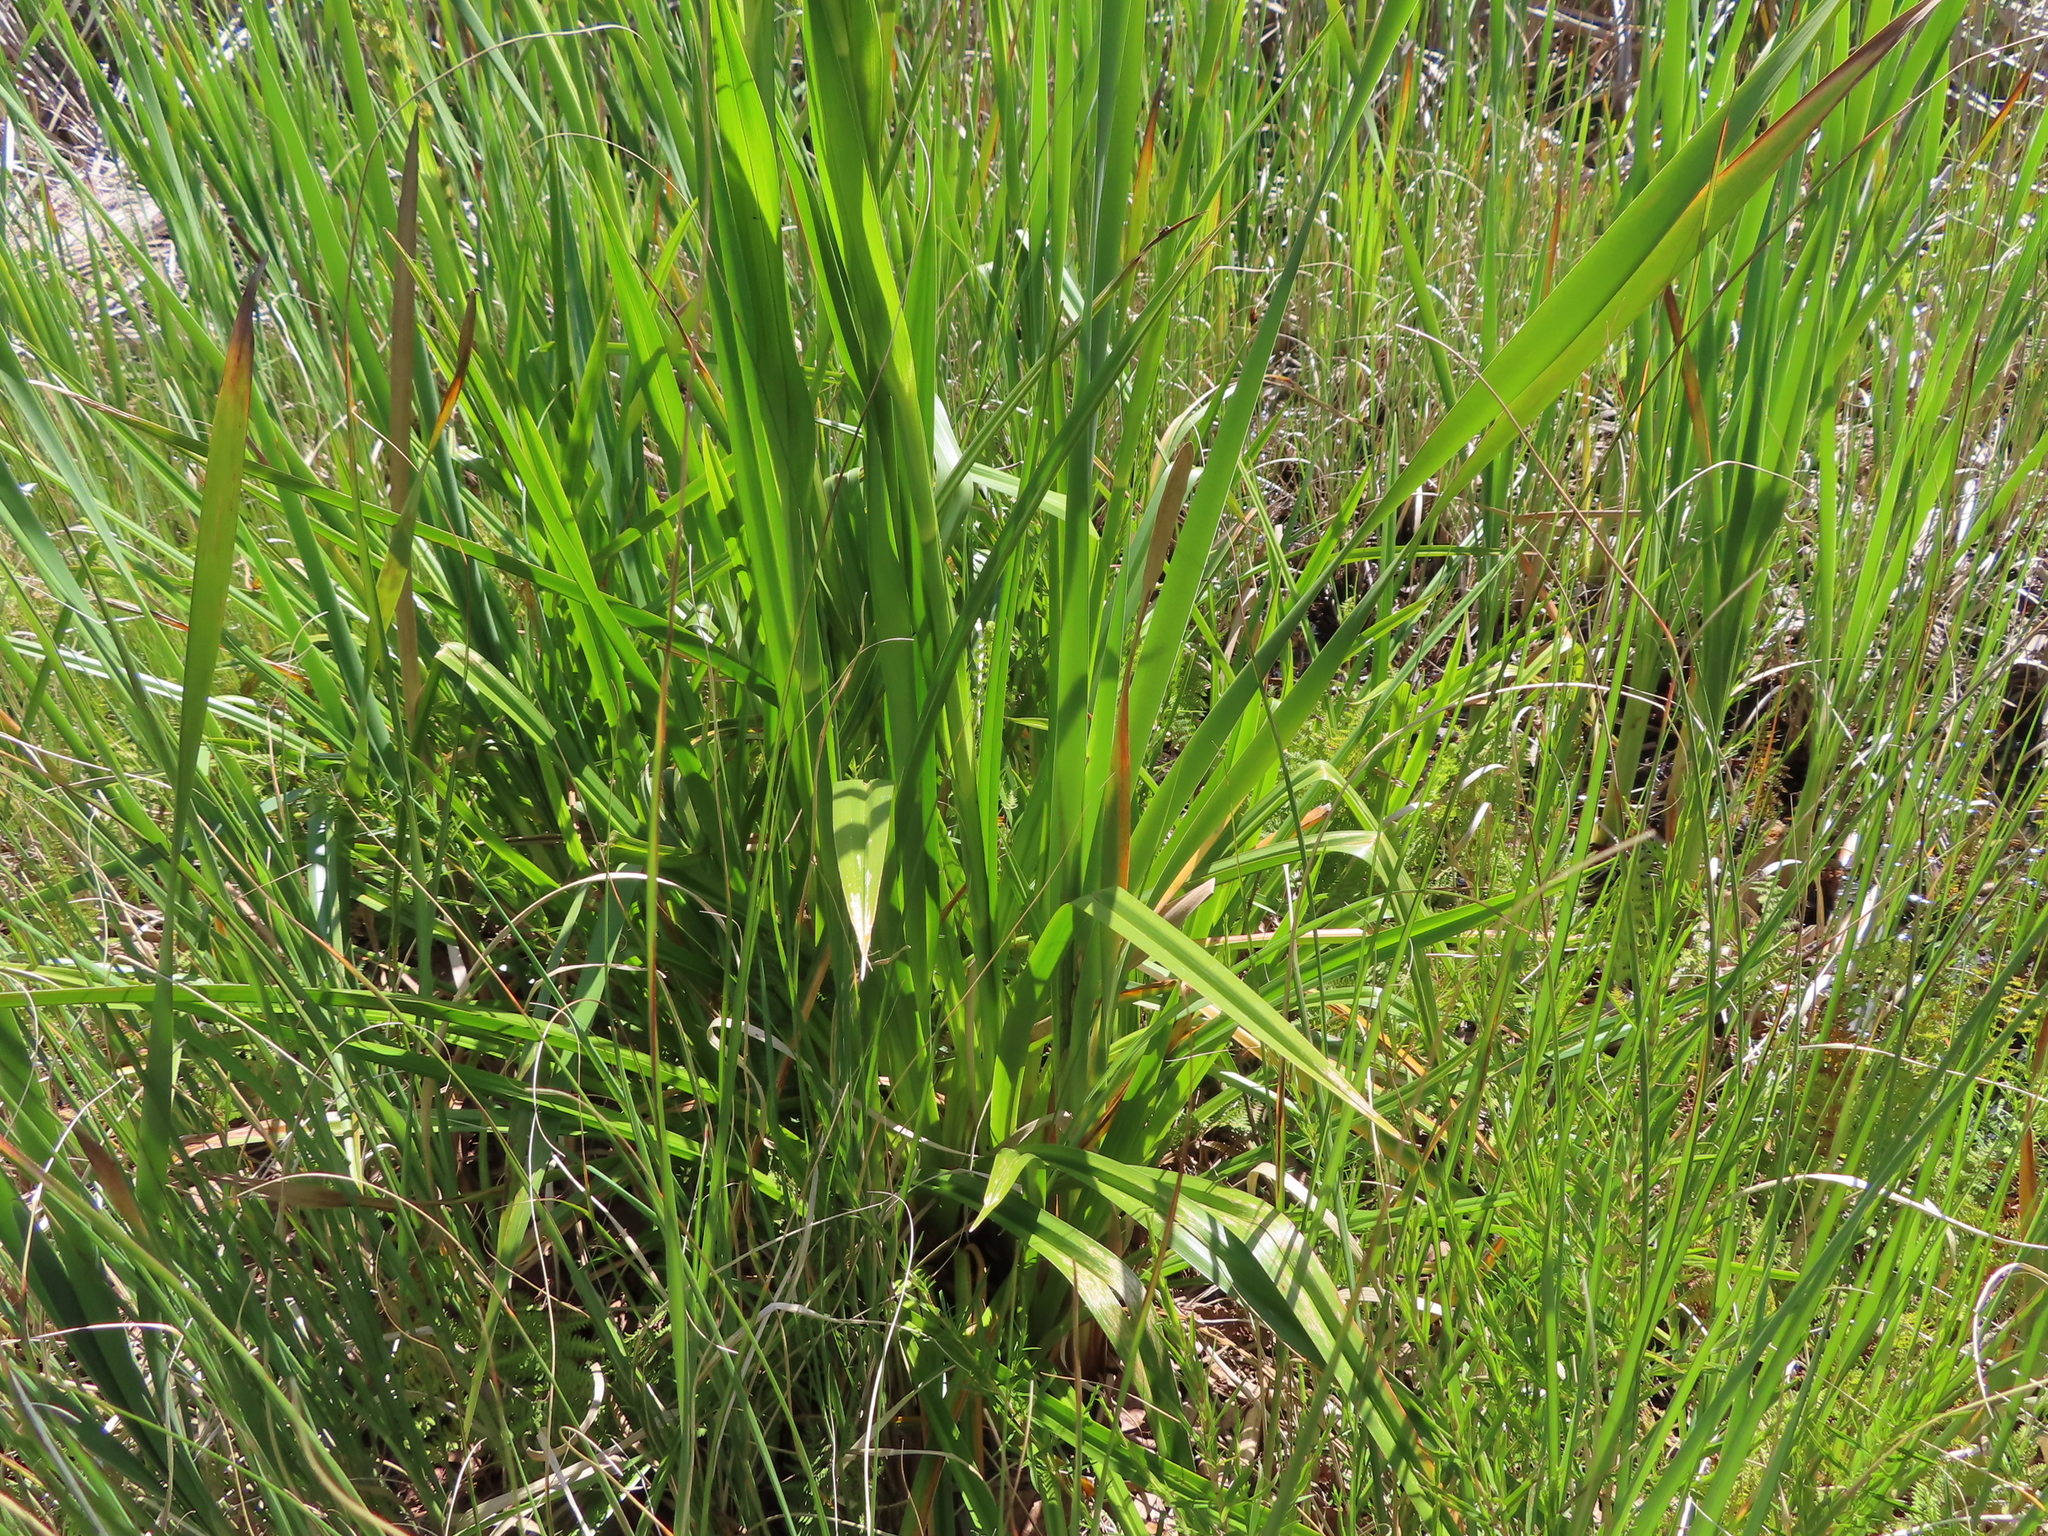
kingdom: Plantae
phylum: Tracheophyta
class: Liliopsida
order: Poales
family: Cyperaceae
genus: Carpha
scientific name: Carpha glomerata
